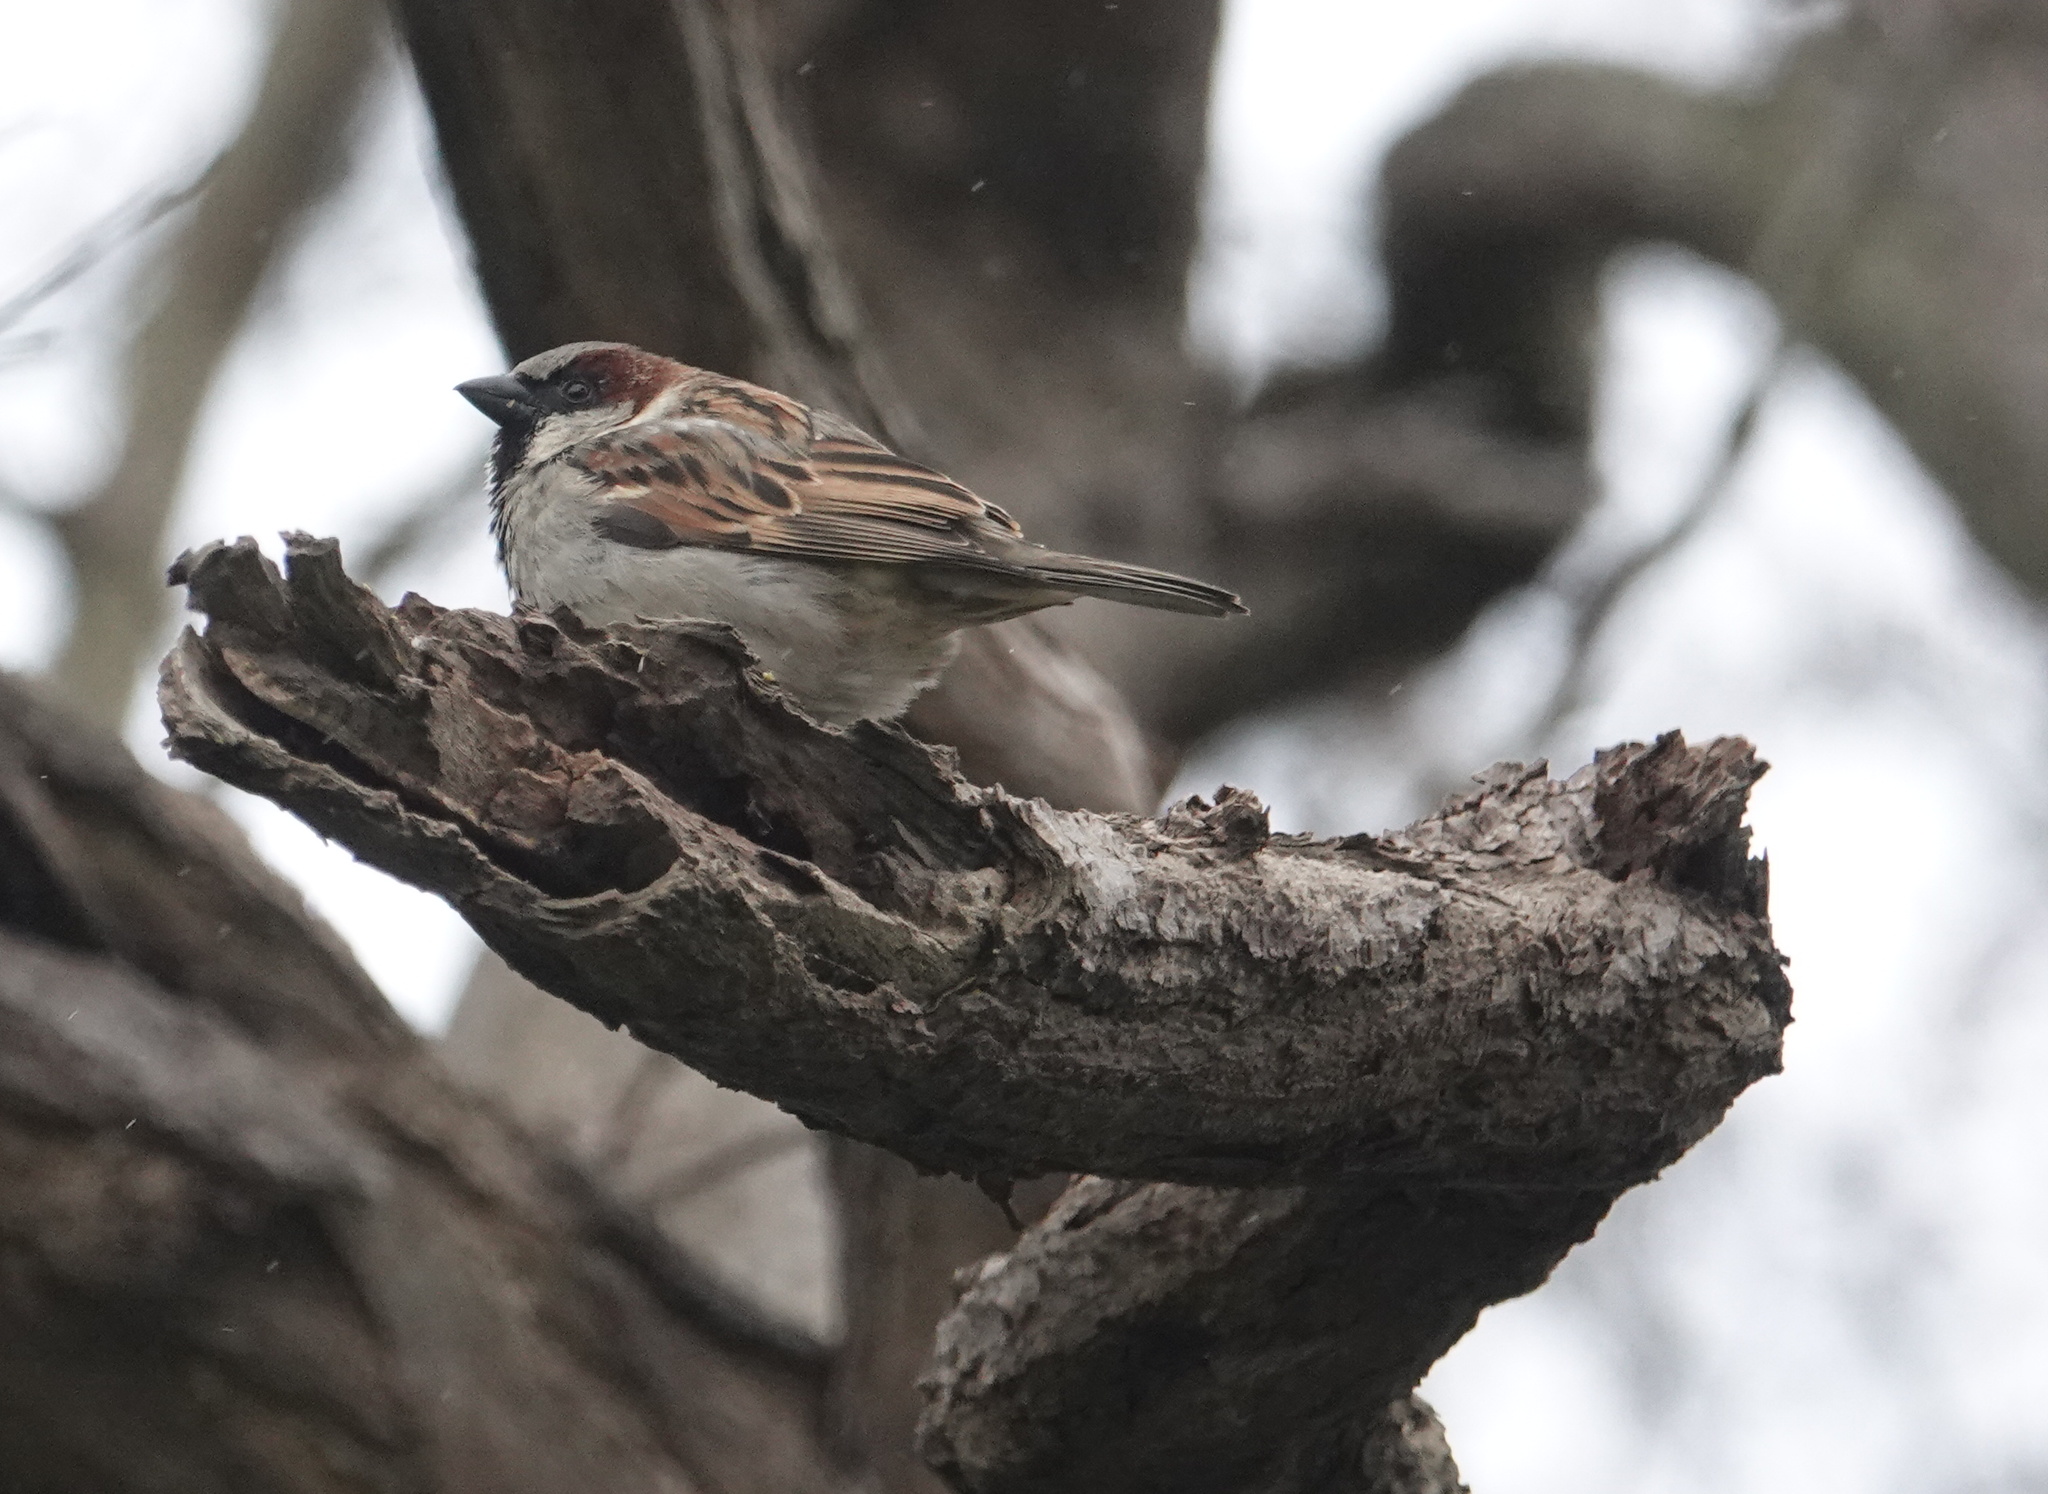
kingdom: Animalia
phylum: Chordata
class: Aves
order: Passeriformes
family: Passeridae
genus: Passer
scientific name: Passer domesticus
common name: House sparrow
